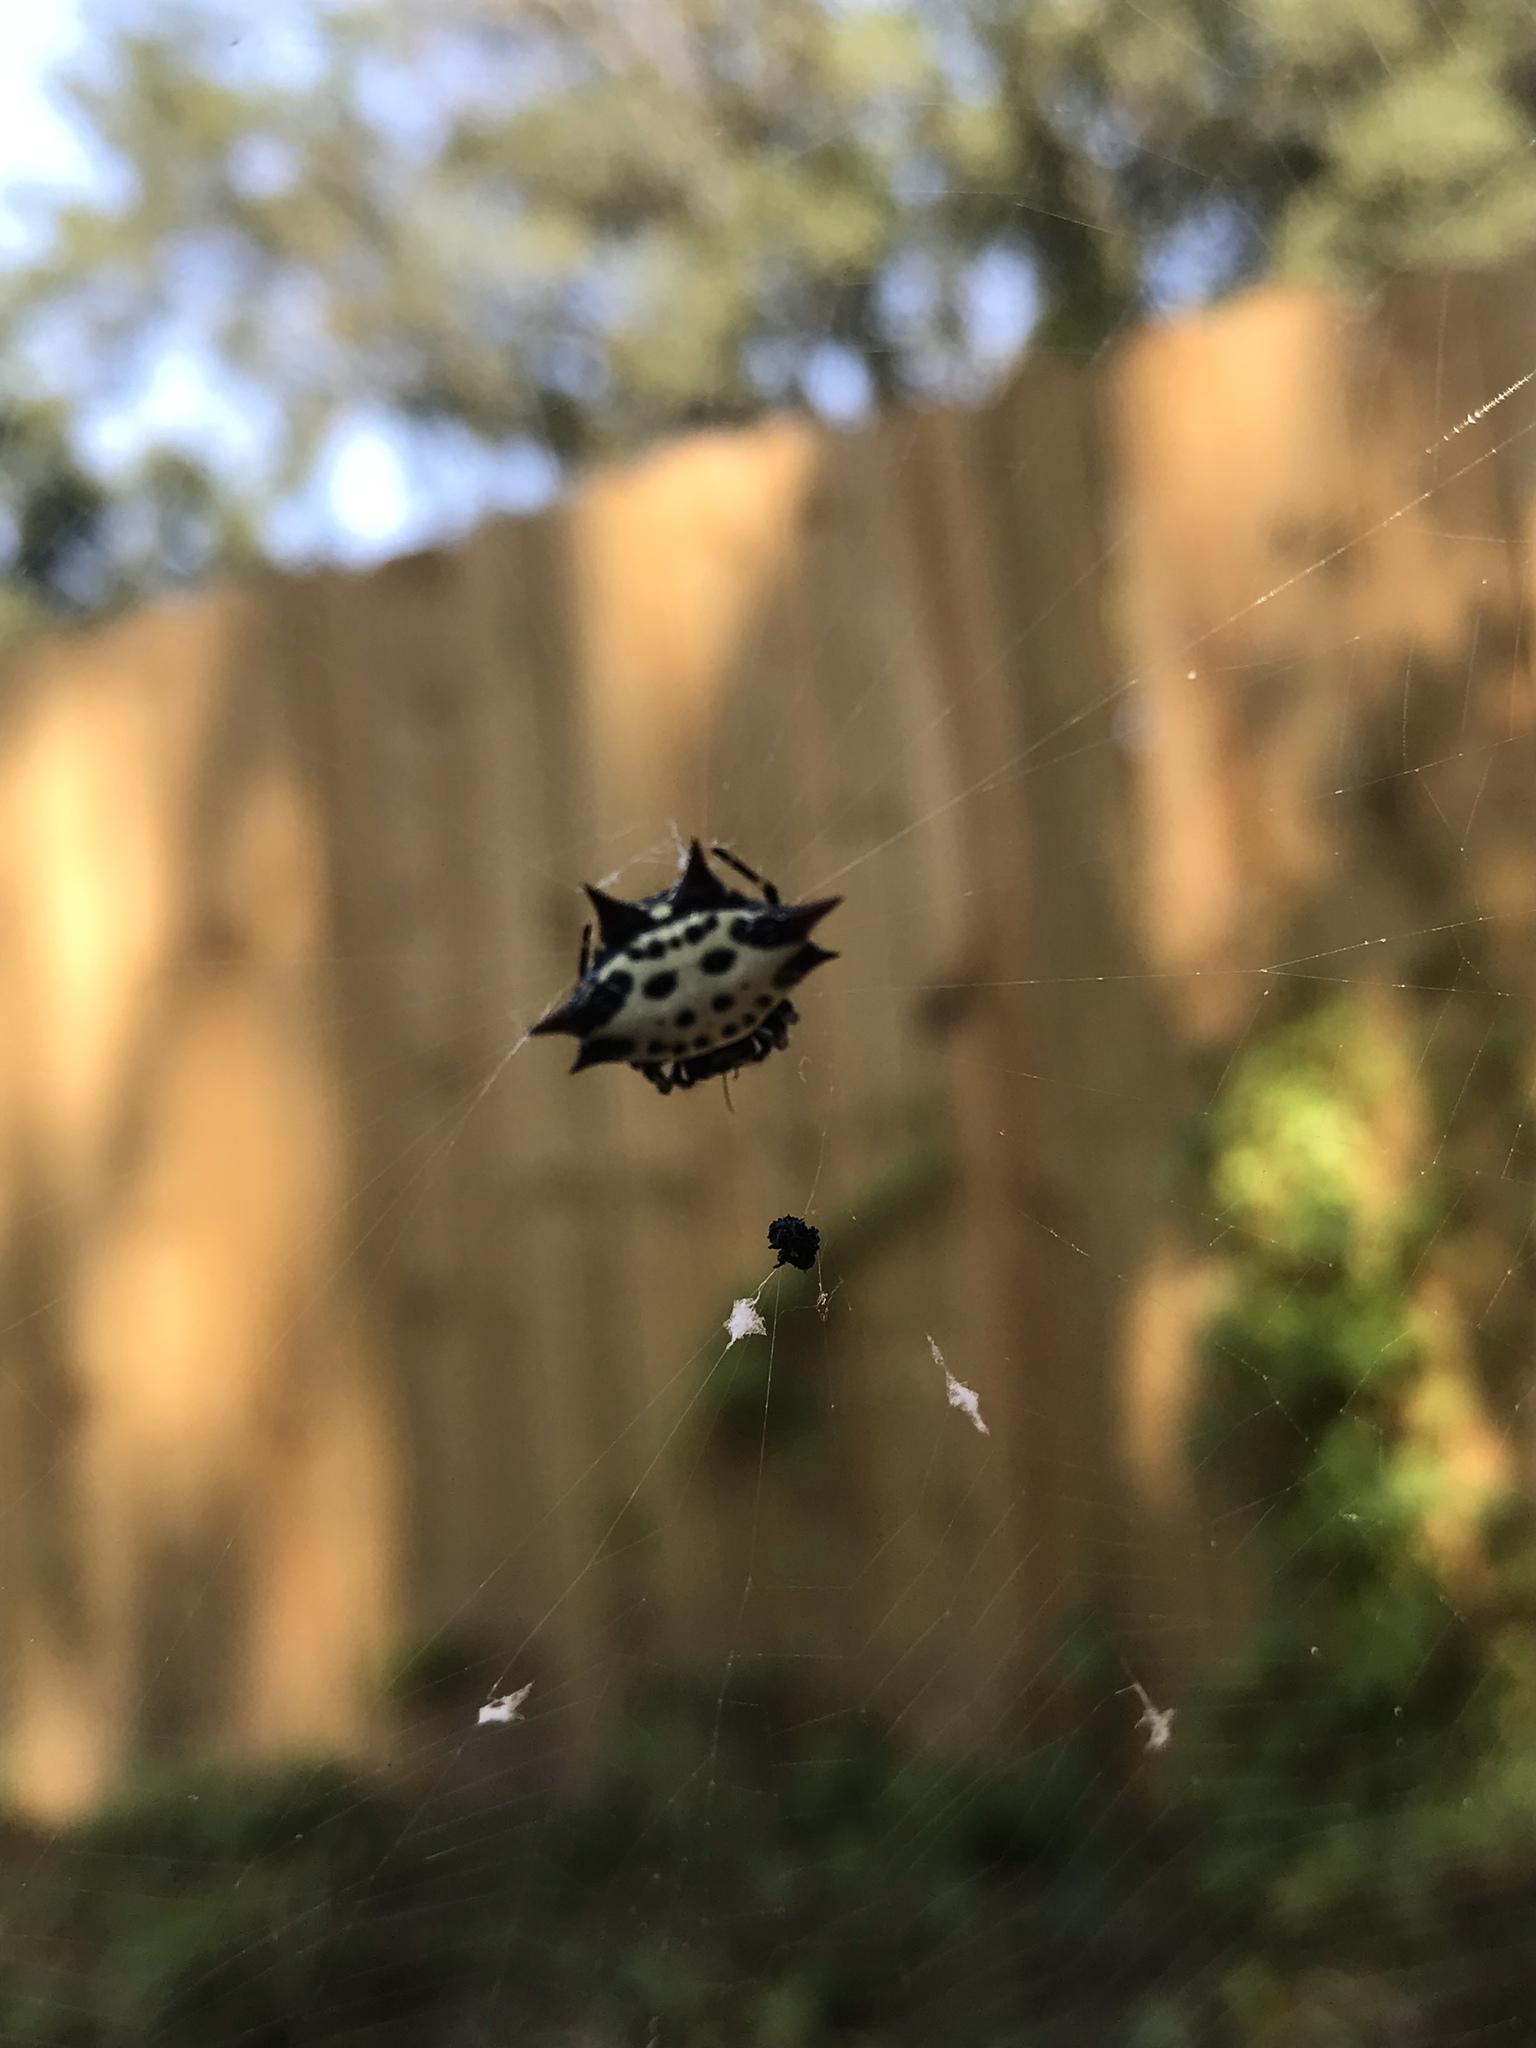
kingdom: Animalia
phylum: Arthropoda
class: Arachnida
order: Araneae
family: Araneidae
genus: Gasteracantha
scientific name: Gasteracantha cancriformis
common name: Orb weavers
